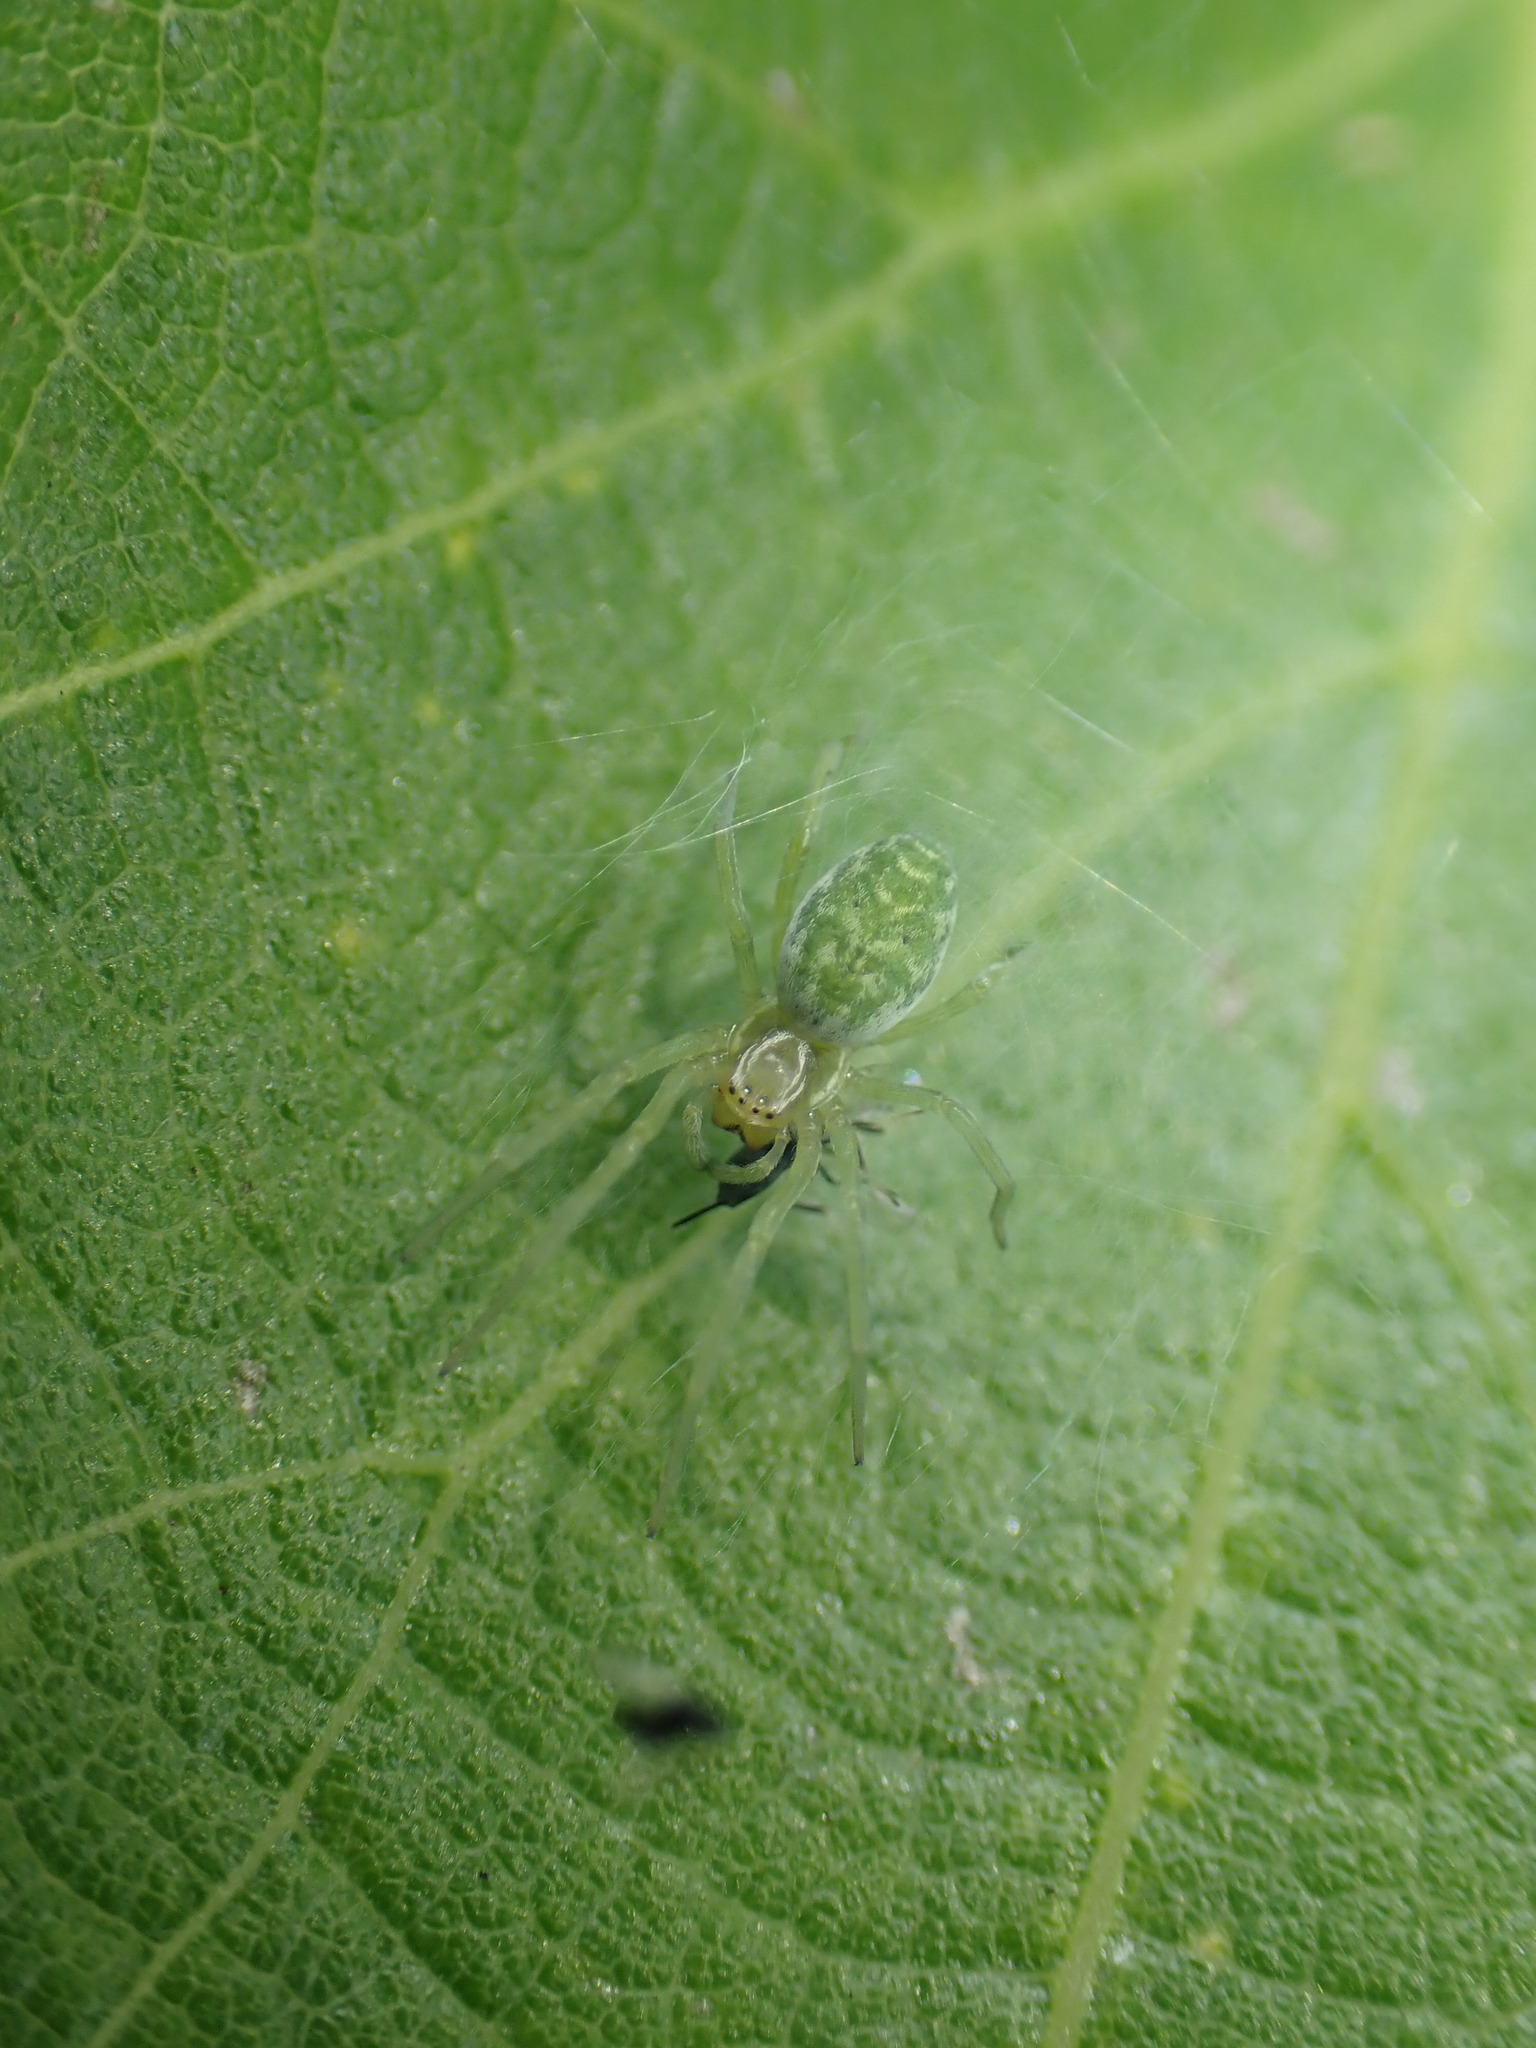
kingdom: Animalia
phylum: Arthropoda
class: Arachnida
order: Araneae
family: Dictynidae
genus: Nigma
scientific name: Nigma walckenaeri
